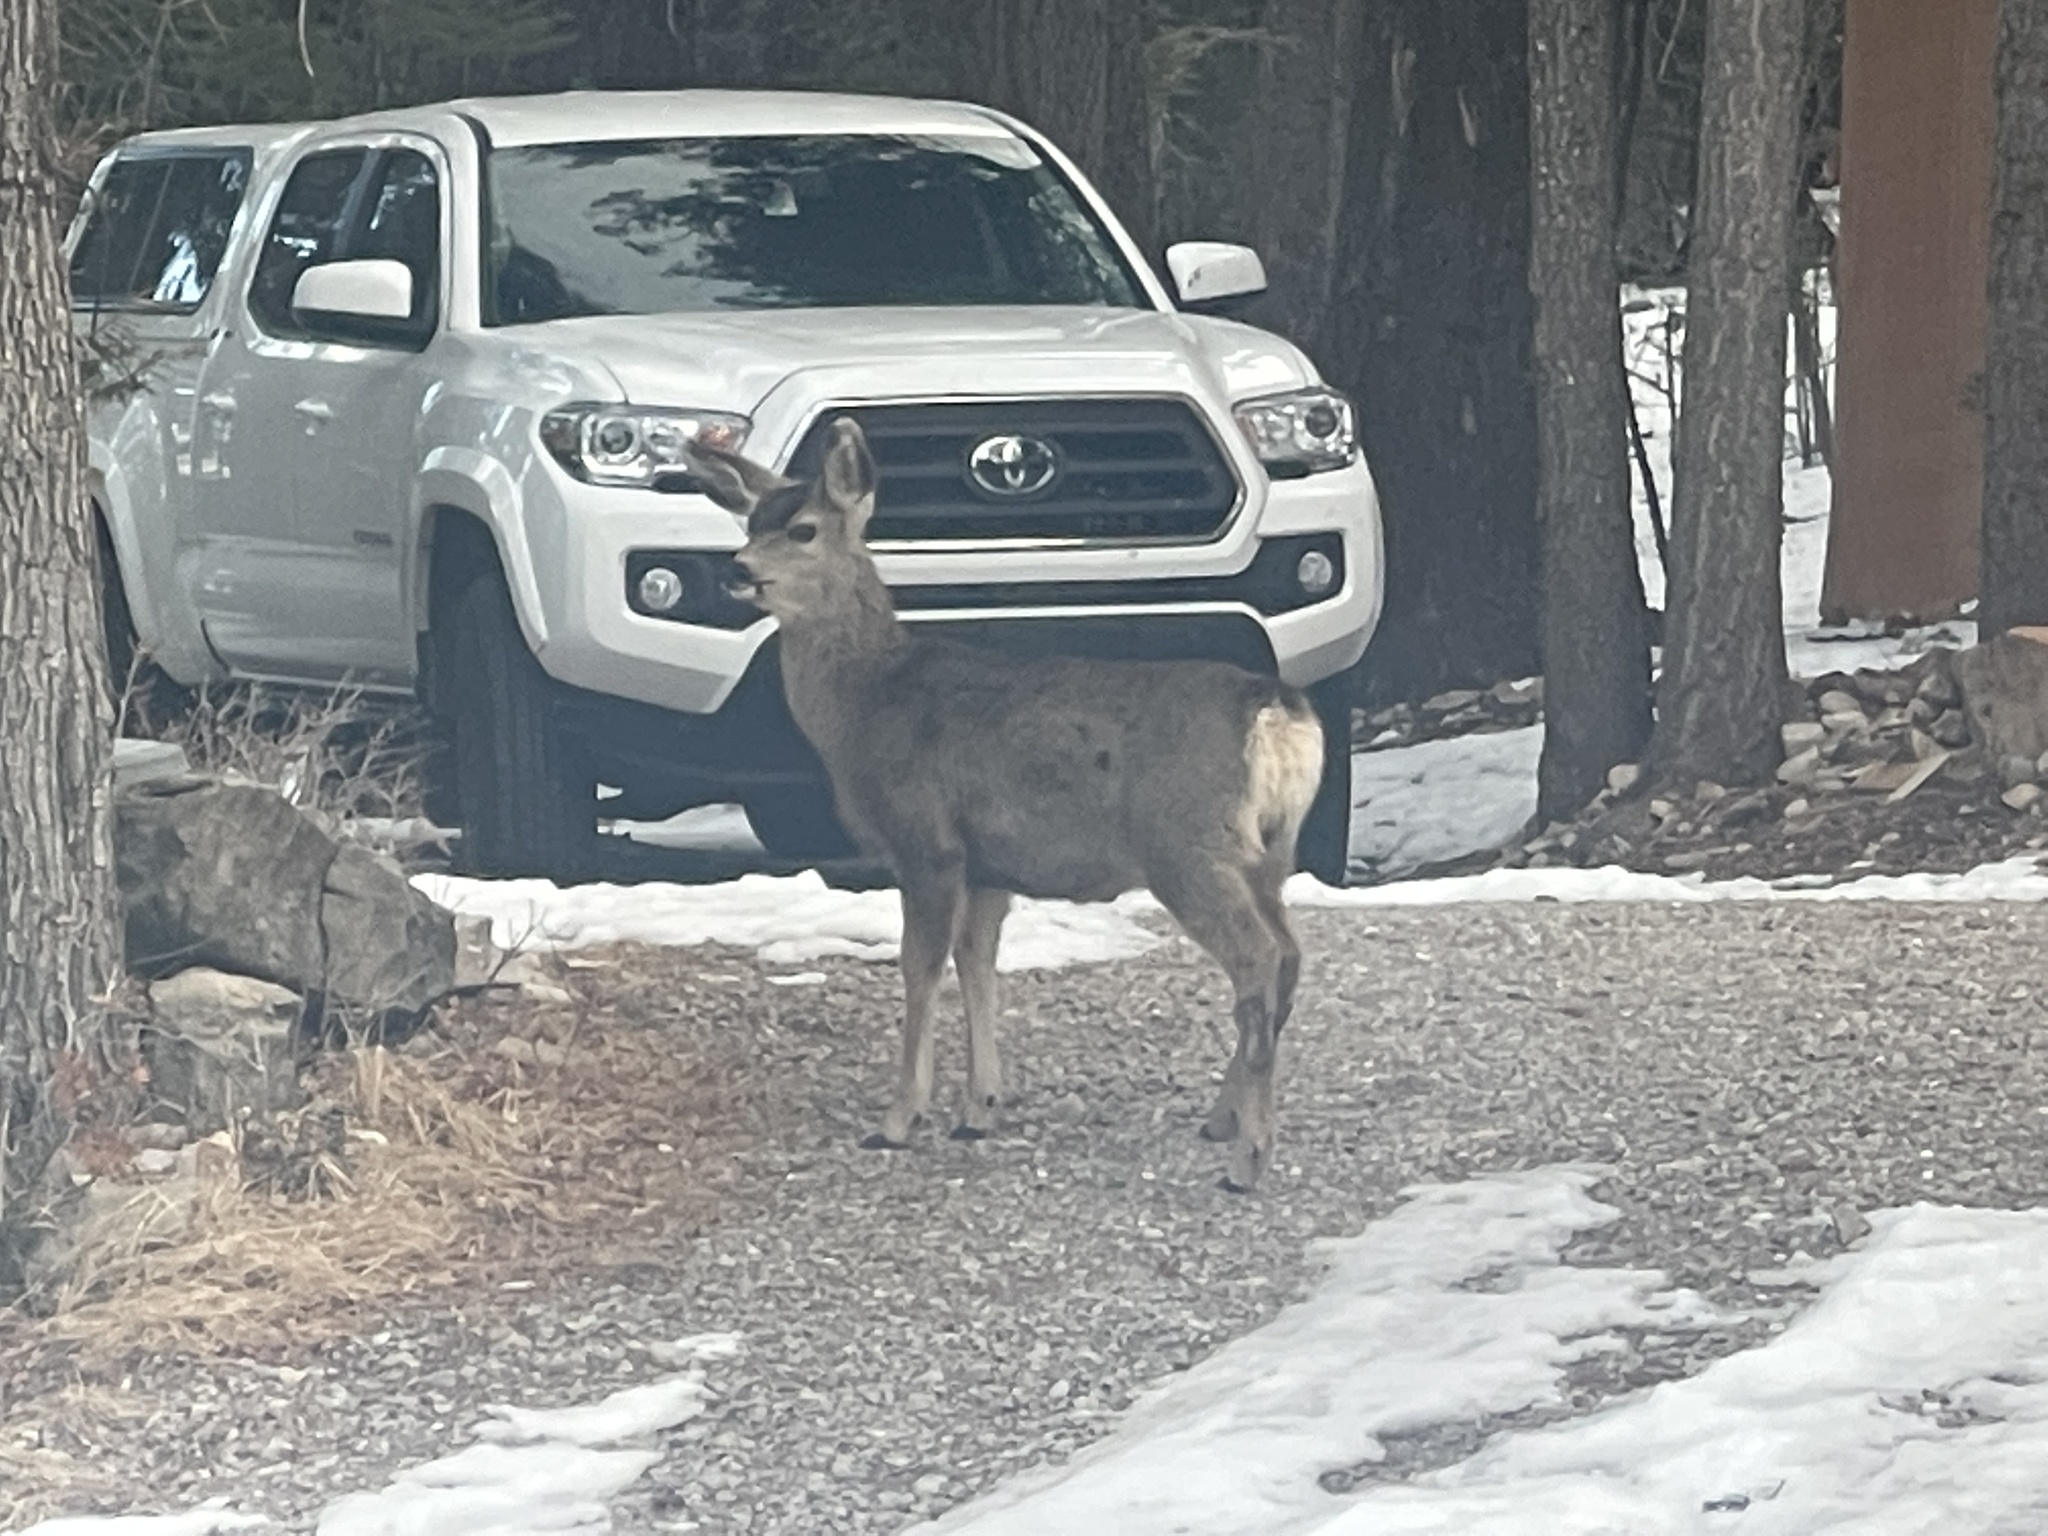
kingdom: Animalia
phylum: Chordata
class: Mammalia
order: Artiodactyla
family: Cervidae
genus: Odocoileus
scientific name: Odocoileus hemionus
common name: Mule deer
